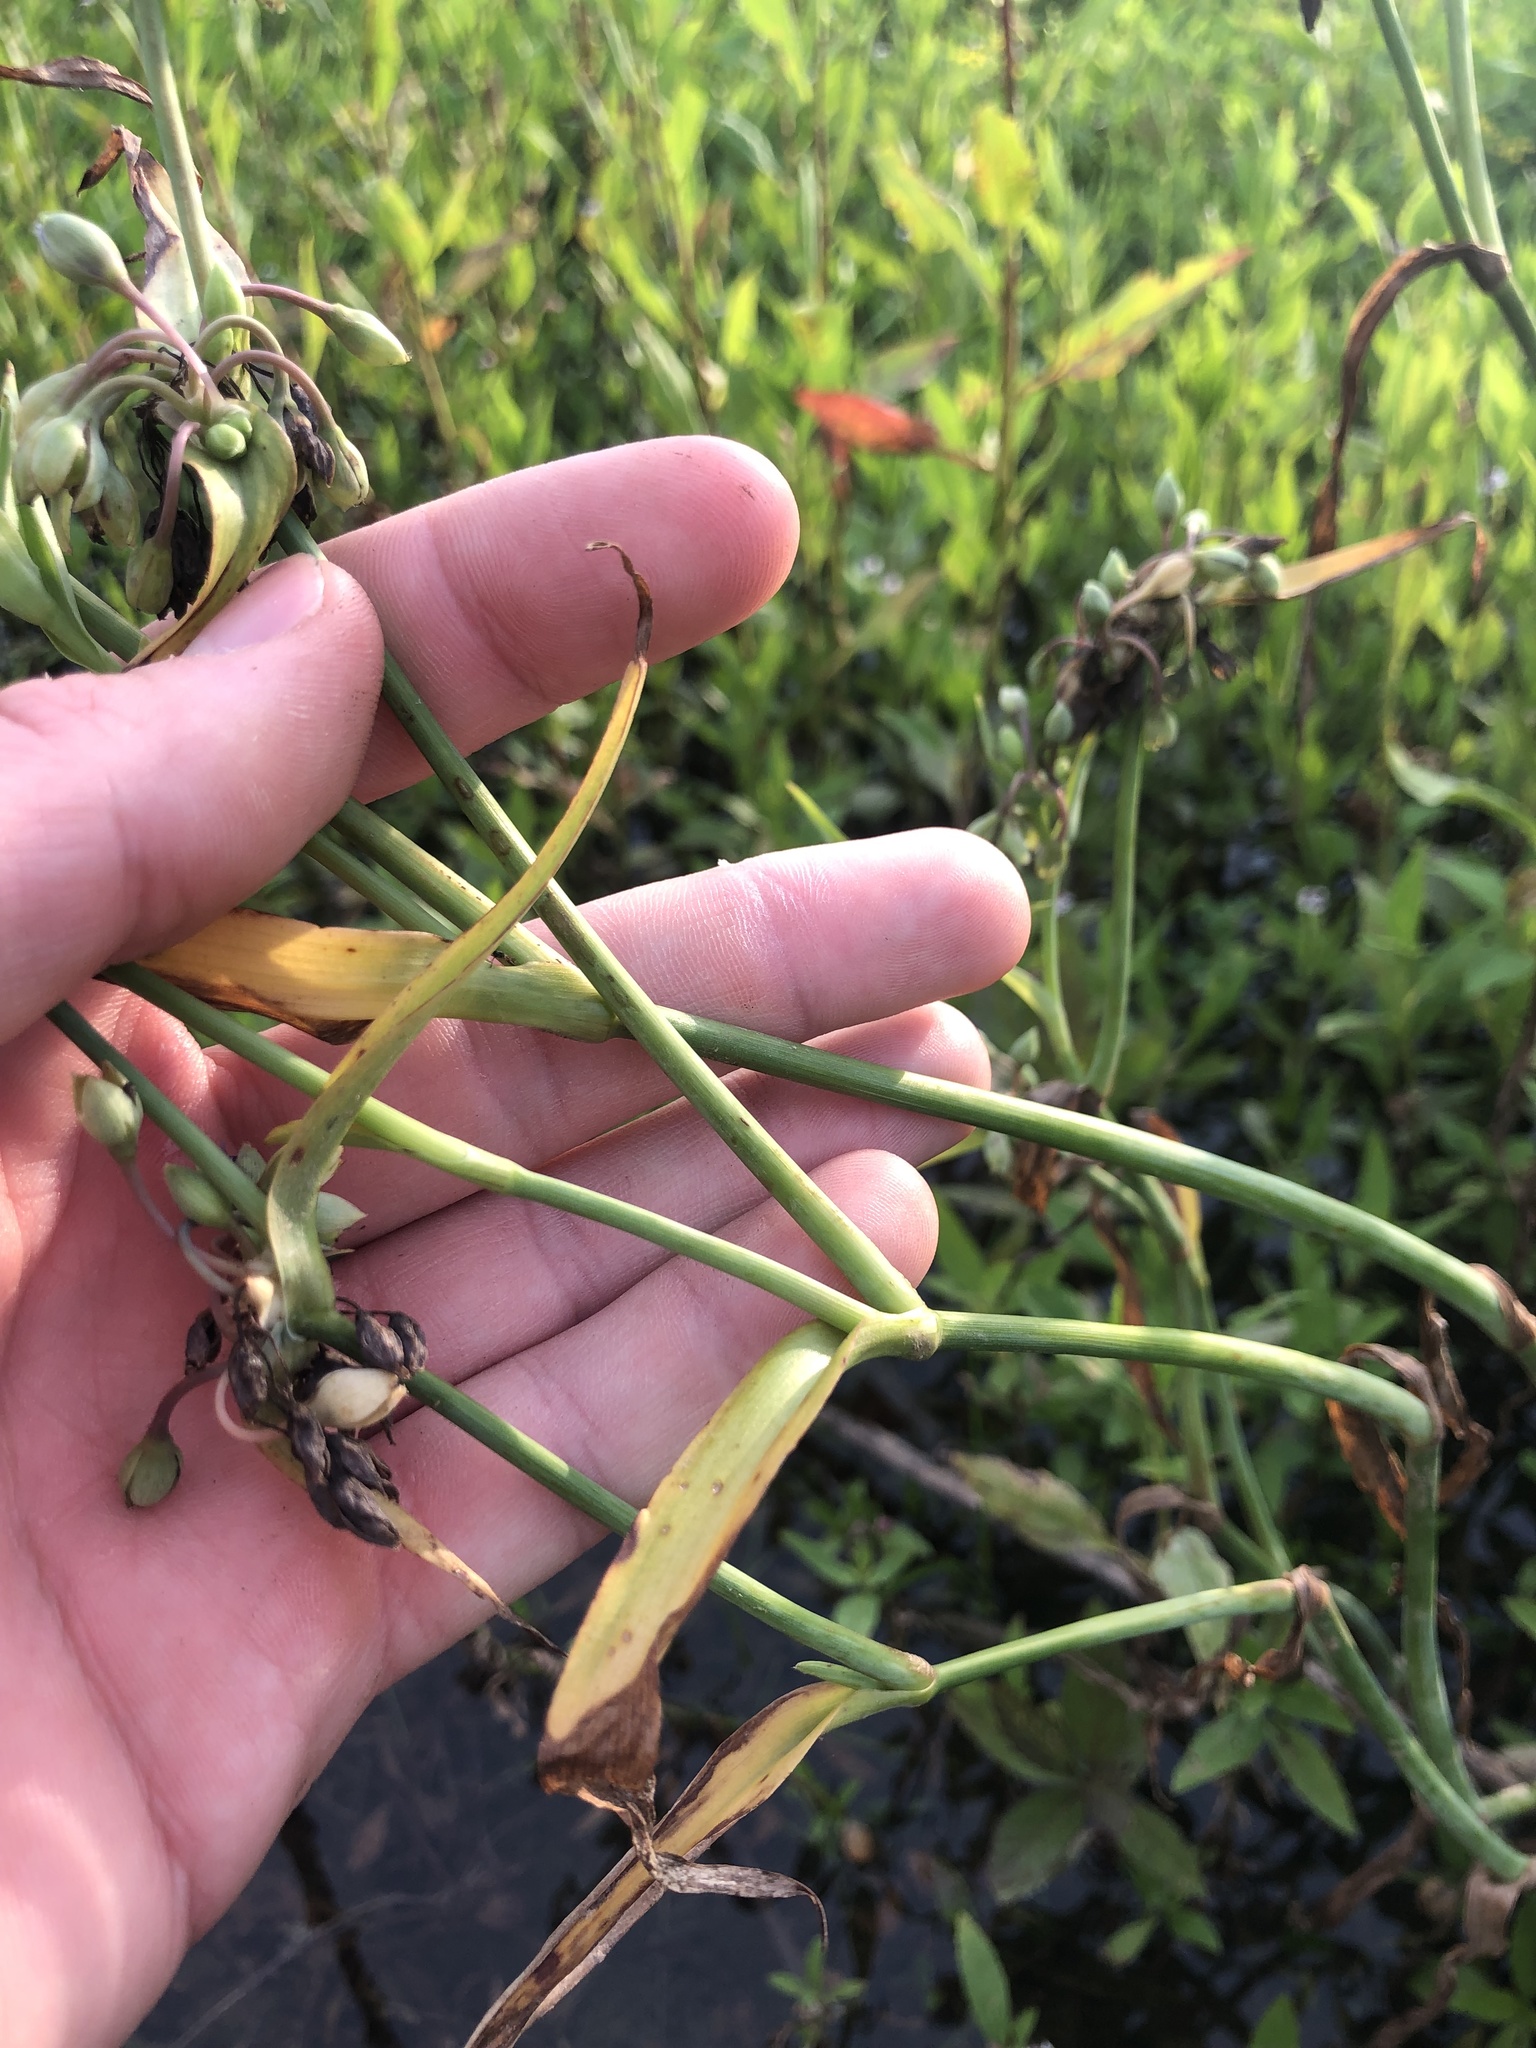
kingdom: Plantae
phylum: Tracheophyta
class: Liliopsida
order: Commelinales
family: Commelinaceae
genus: Tradescantia
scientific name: Tradescantia ohiensis
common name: Ohio spiderwort
